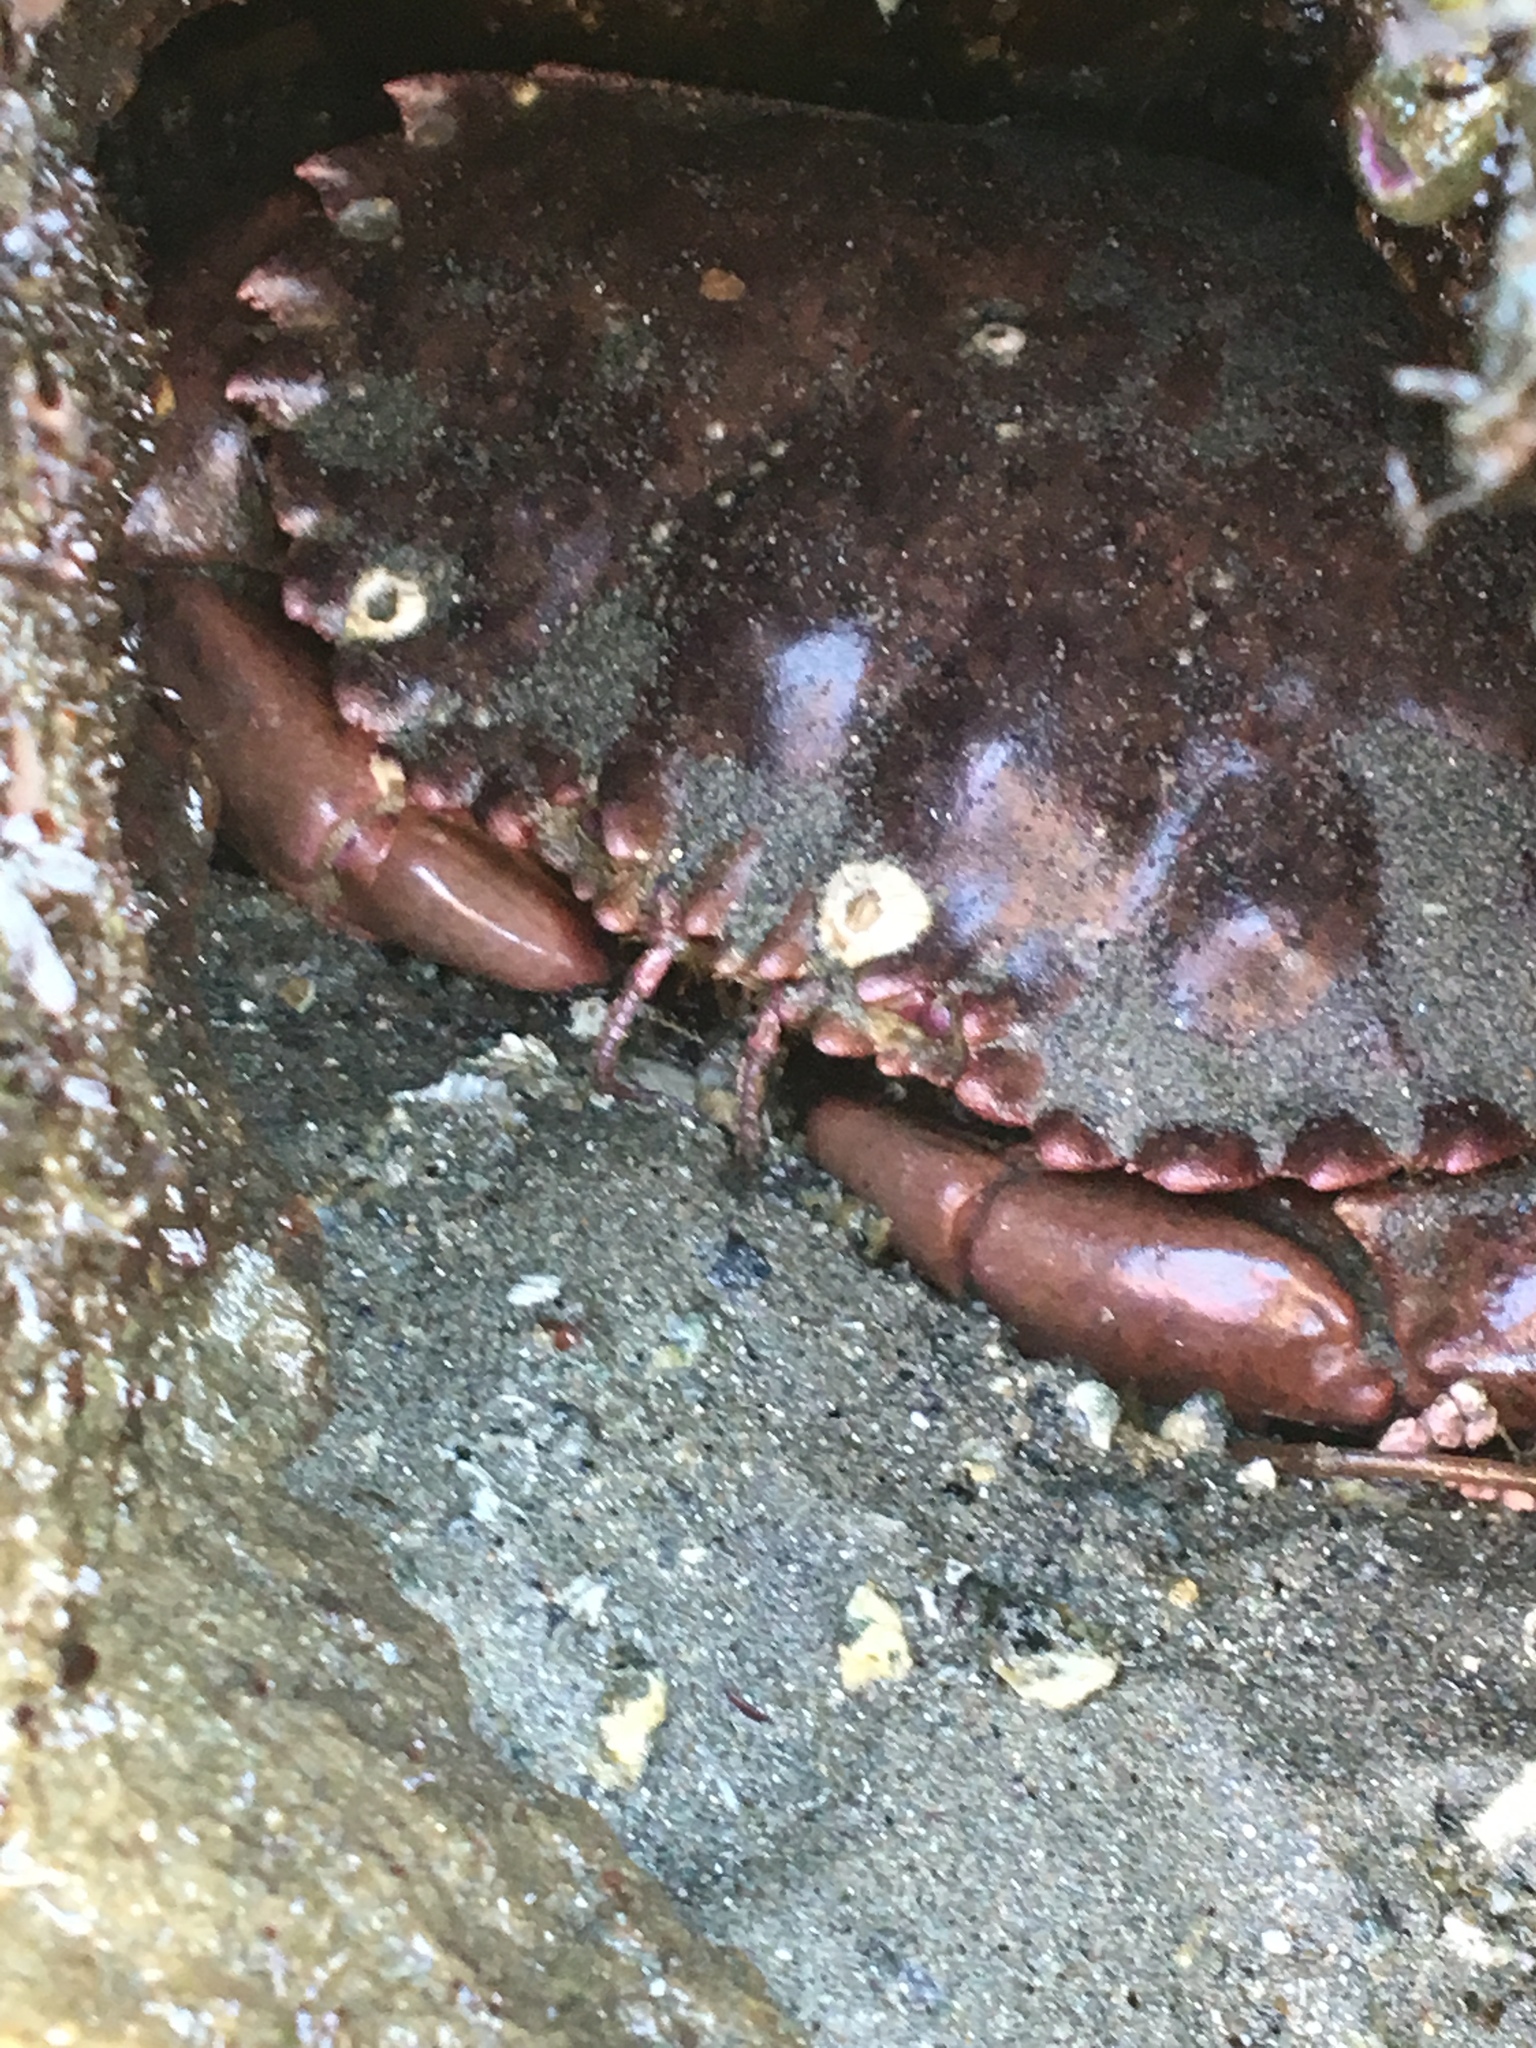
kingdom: Animalia
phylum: Arthropoda
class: Malacostraca
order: Decapoda
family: Cancridae
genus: Romaleon
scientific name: Romaleon antennarium
